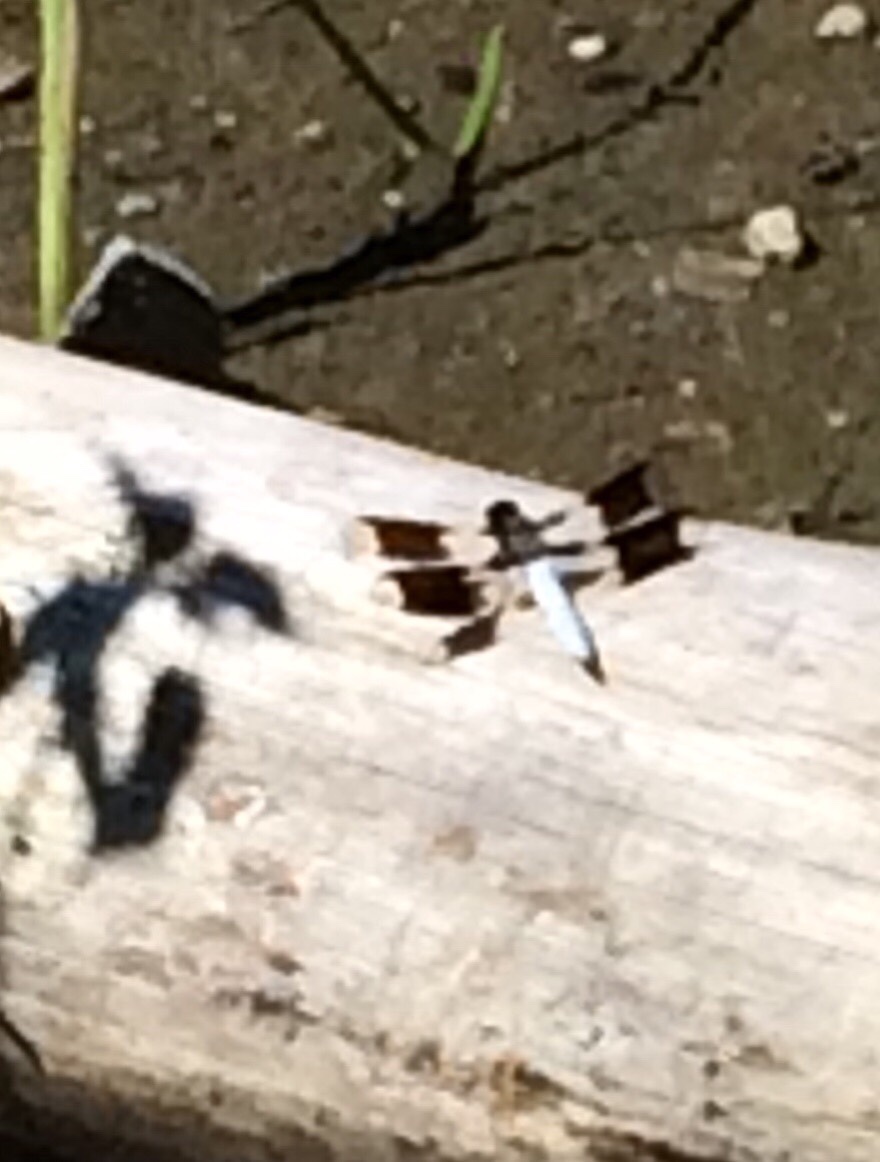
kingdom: Animalia
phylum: Arthropoda
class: Insecta
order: Odonata
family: Libellulidae
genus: Plathemis
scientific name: Plathemis lydia
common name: Common whitetail
